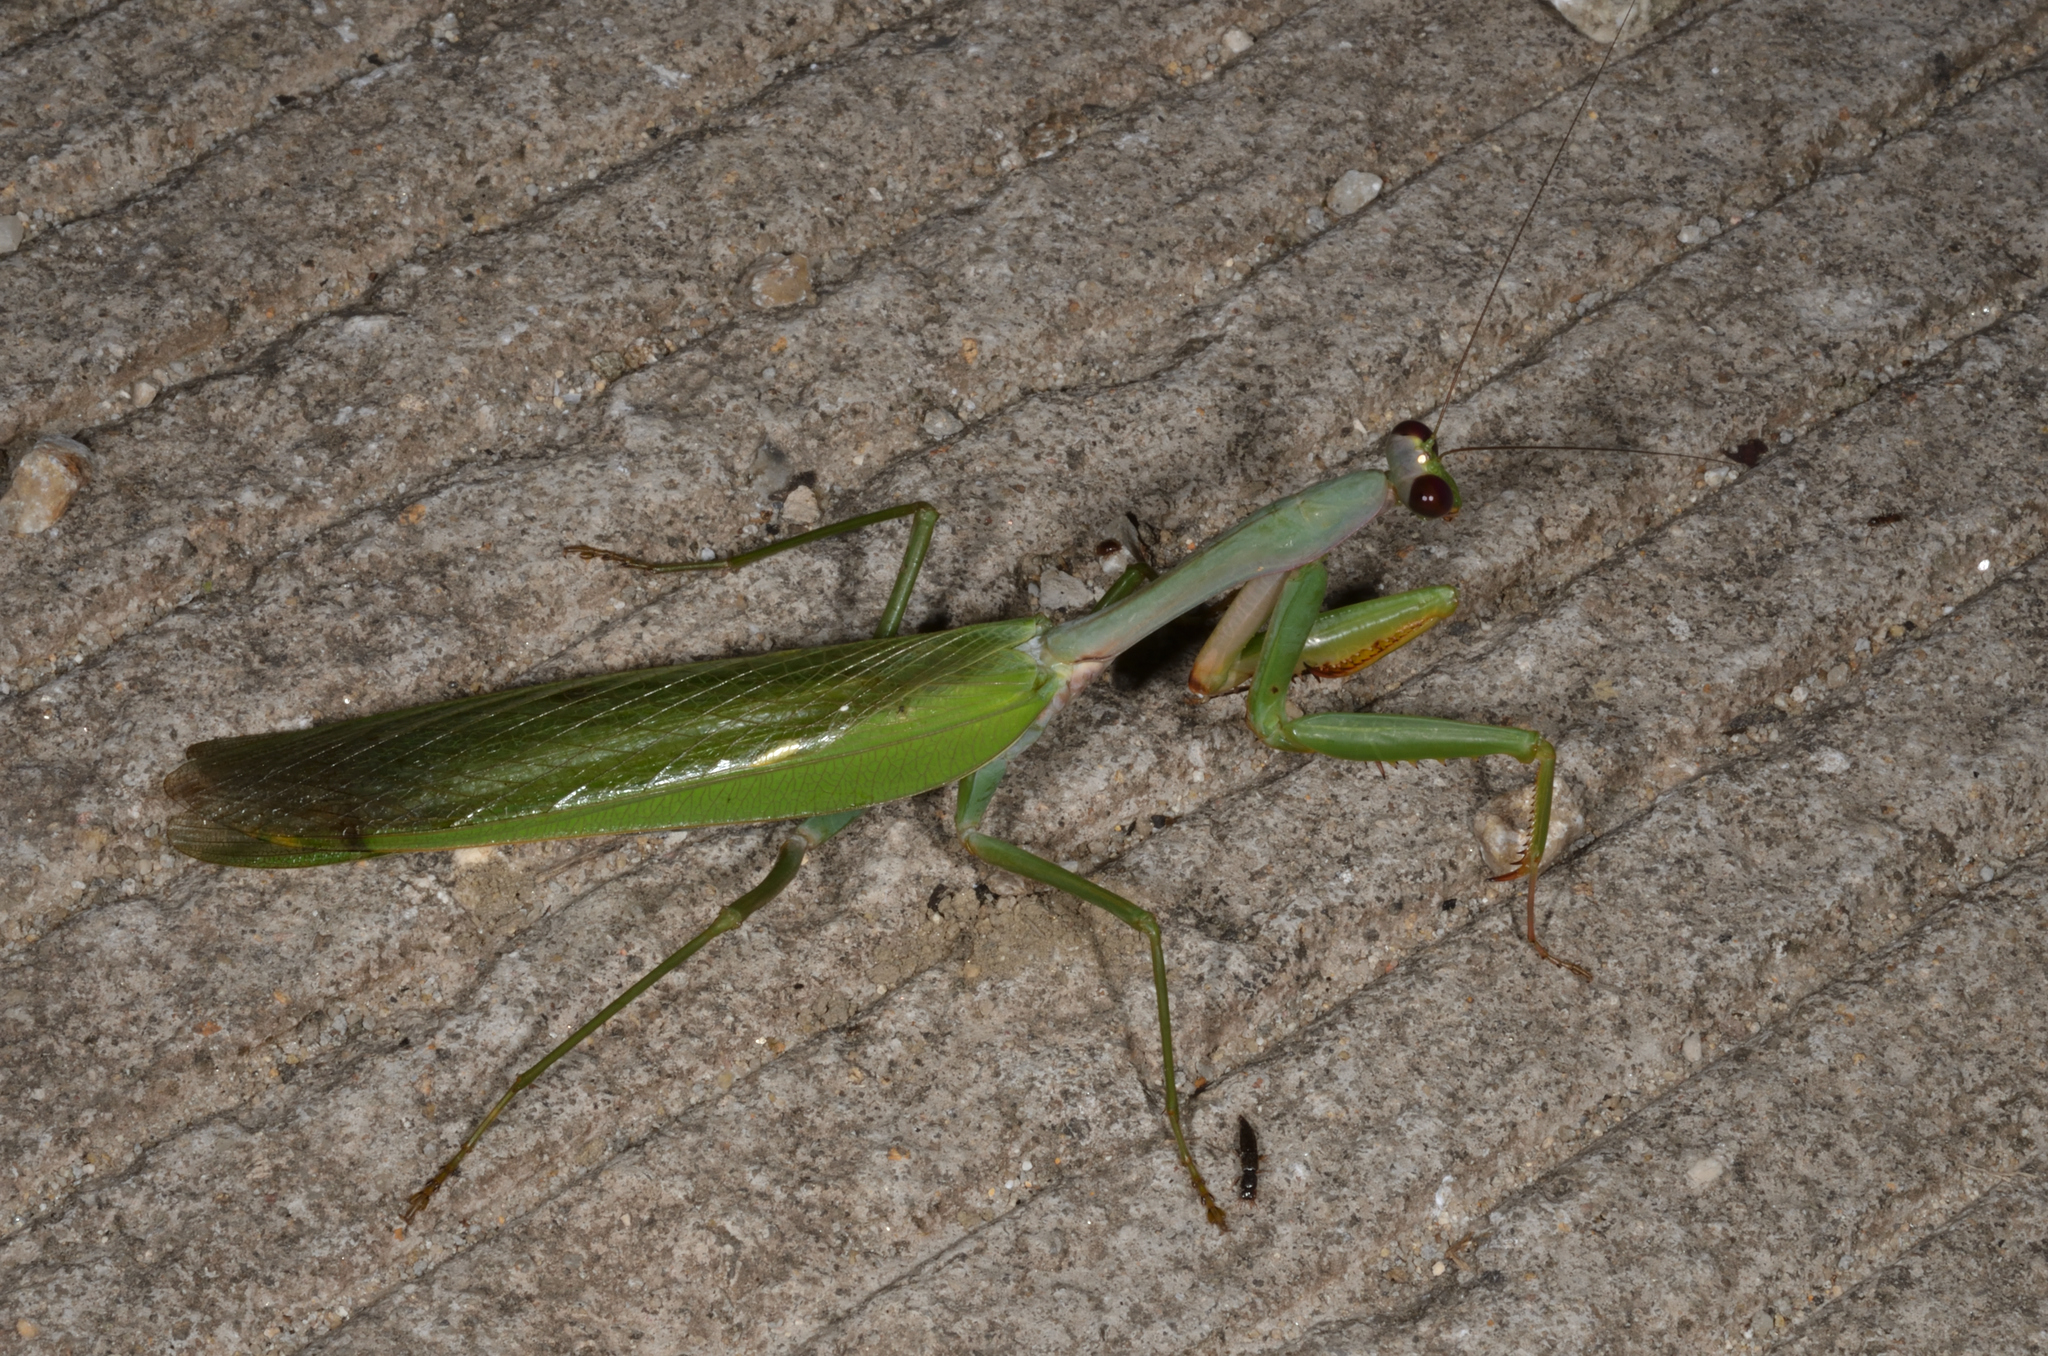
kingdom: Animalia
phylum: Arthropoda
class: Insecta
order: Mantodea
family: Mantidae
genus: Titanodula
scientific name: Titanodula fruhstorferi
